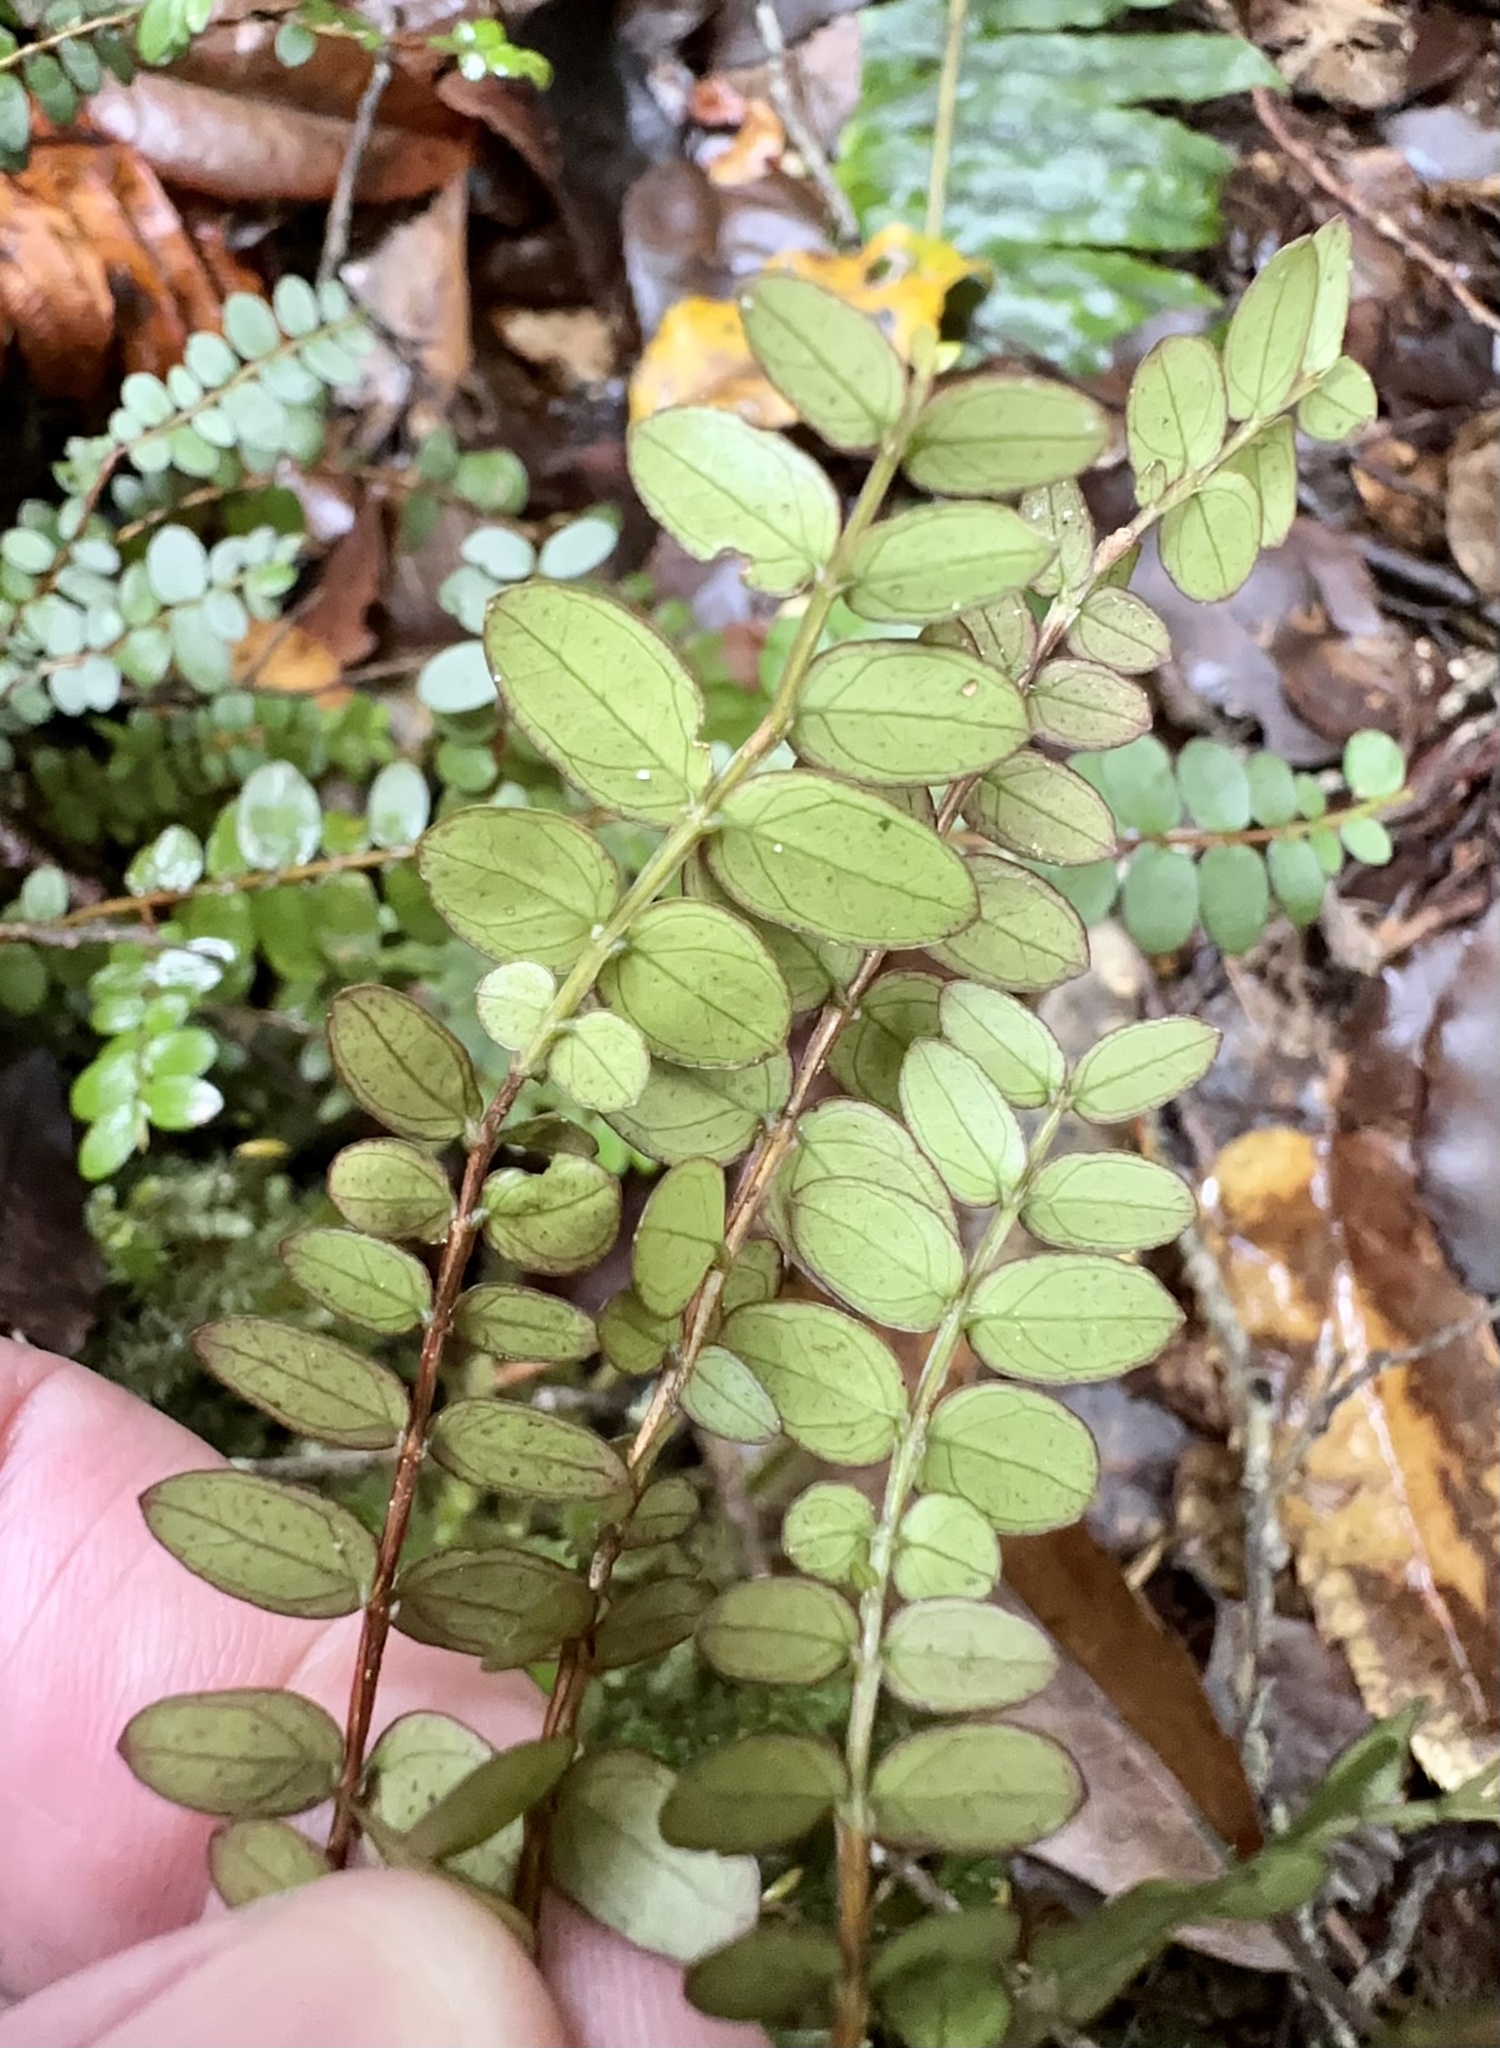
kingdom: Plantae
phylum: Tracheophyta
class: Magnoliopsida
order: Myrtales
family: Myrtaceae
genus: Metrosideros
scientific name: Metrosideros diffusa
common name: Small ratavine
